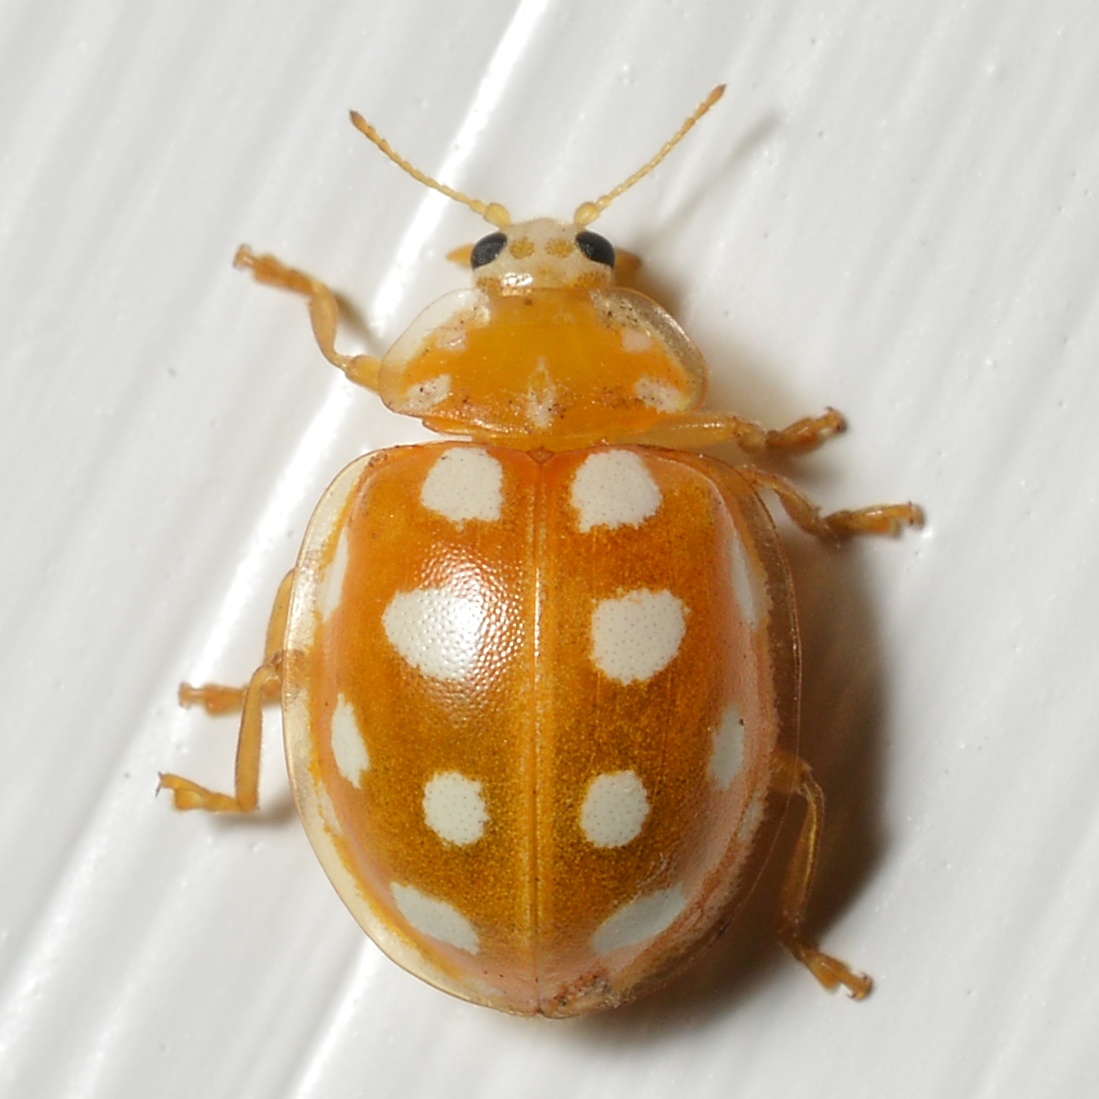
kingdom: Animalia
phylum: Arthropoda
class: Insecta
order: Coleoptera
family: Coccinellidae
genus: Halyzia
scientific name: Halyzia sedecimguttata
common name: Orange ladybird
